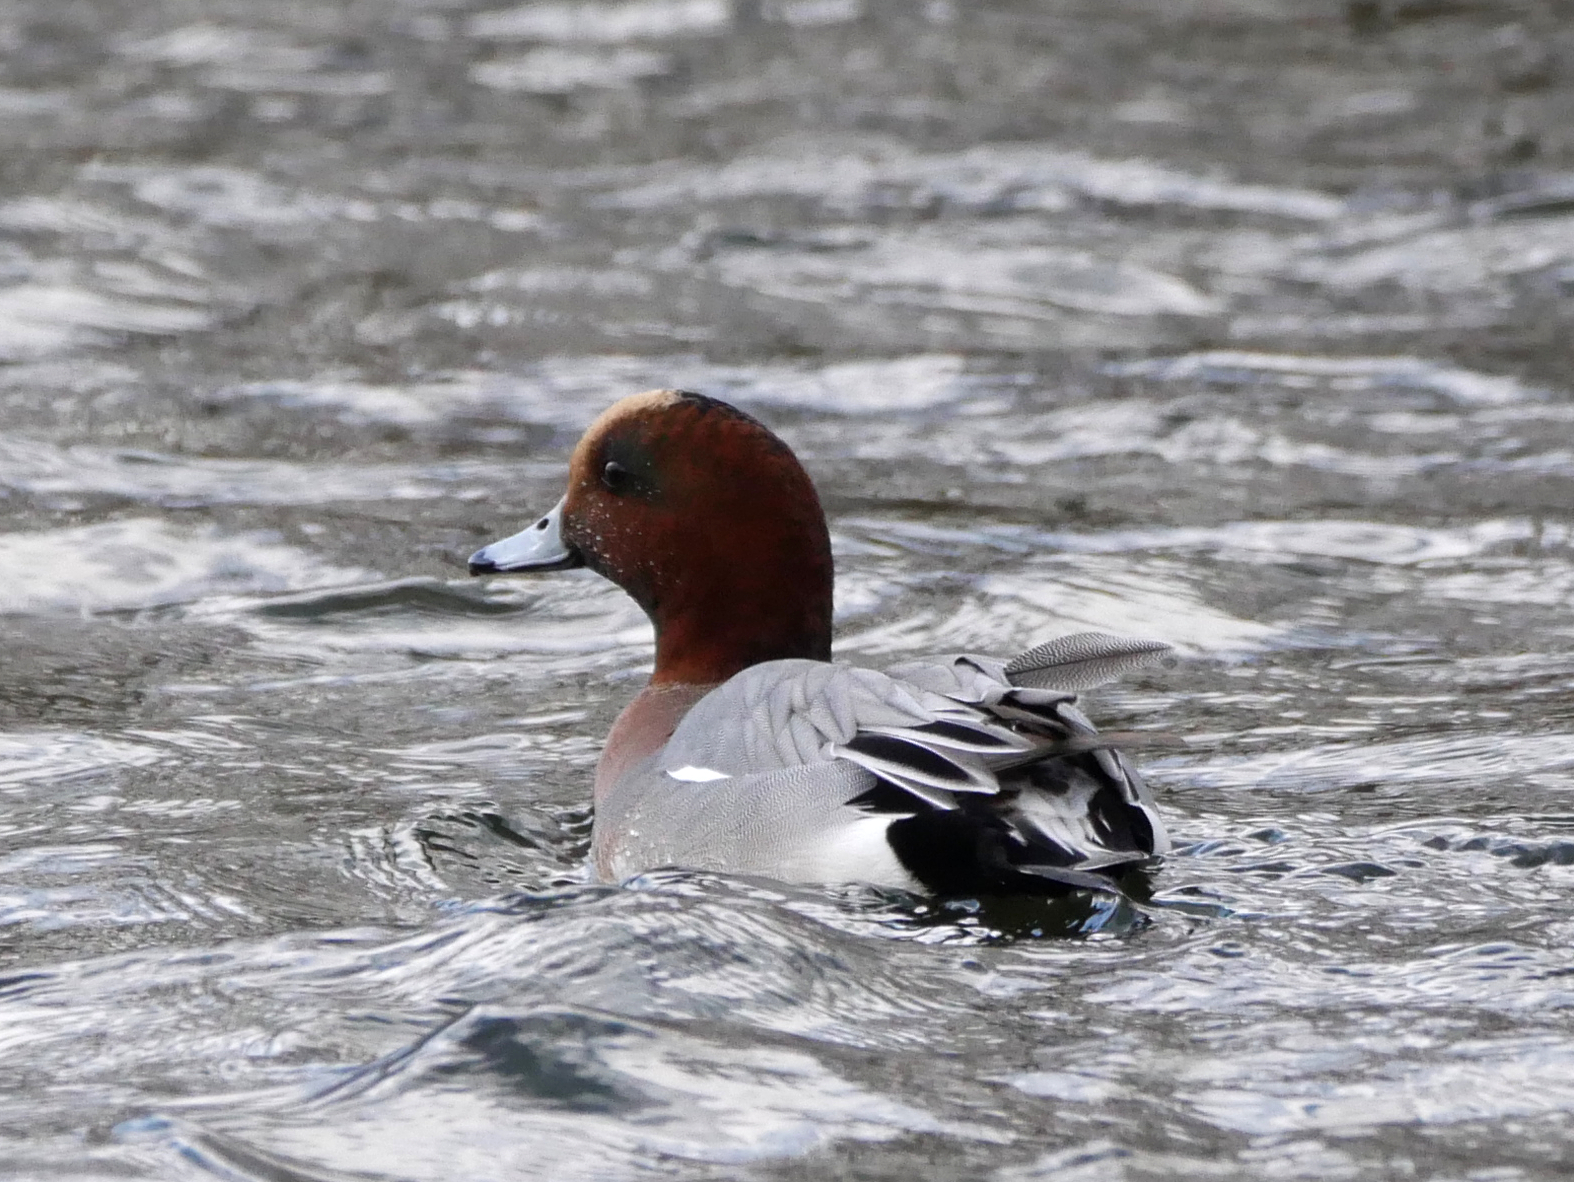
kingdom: Animalia
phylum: Chordata
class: Aves
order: Anseriformes
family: Anatidae
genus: Mareca
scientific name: Mareca penelope
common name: Eurasian wigeon
